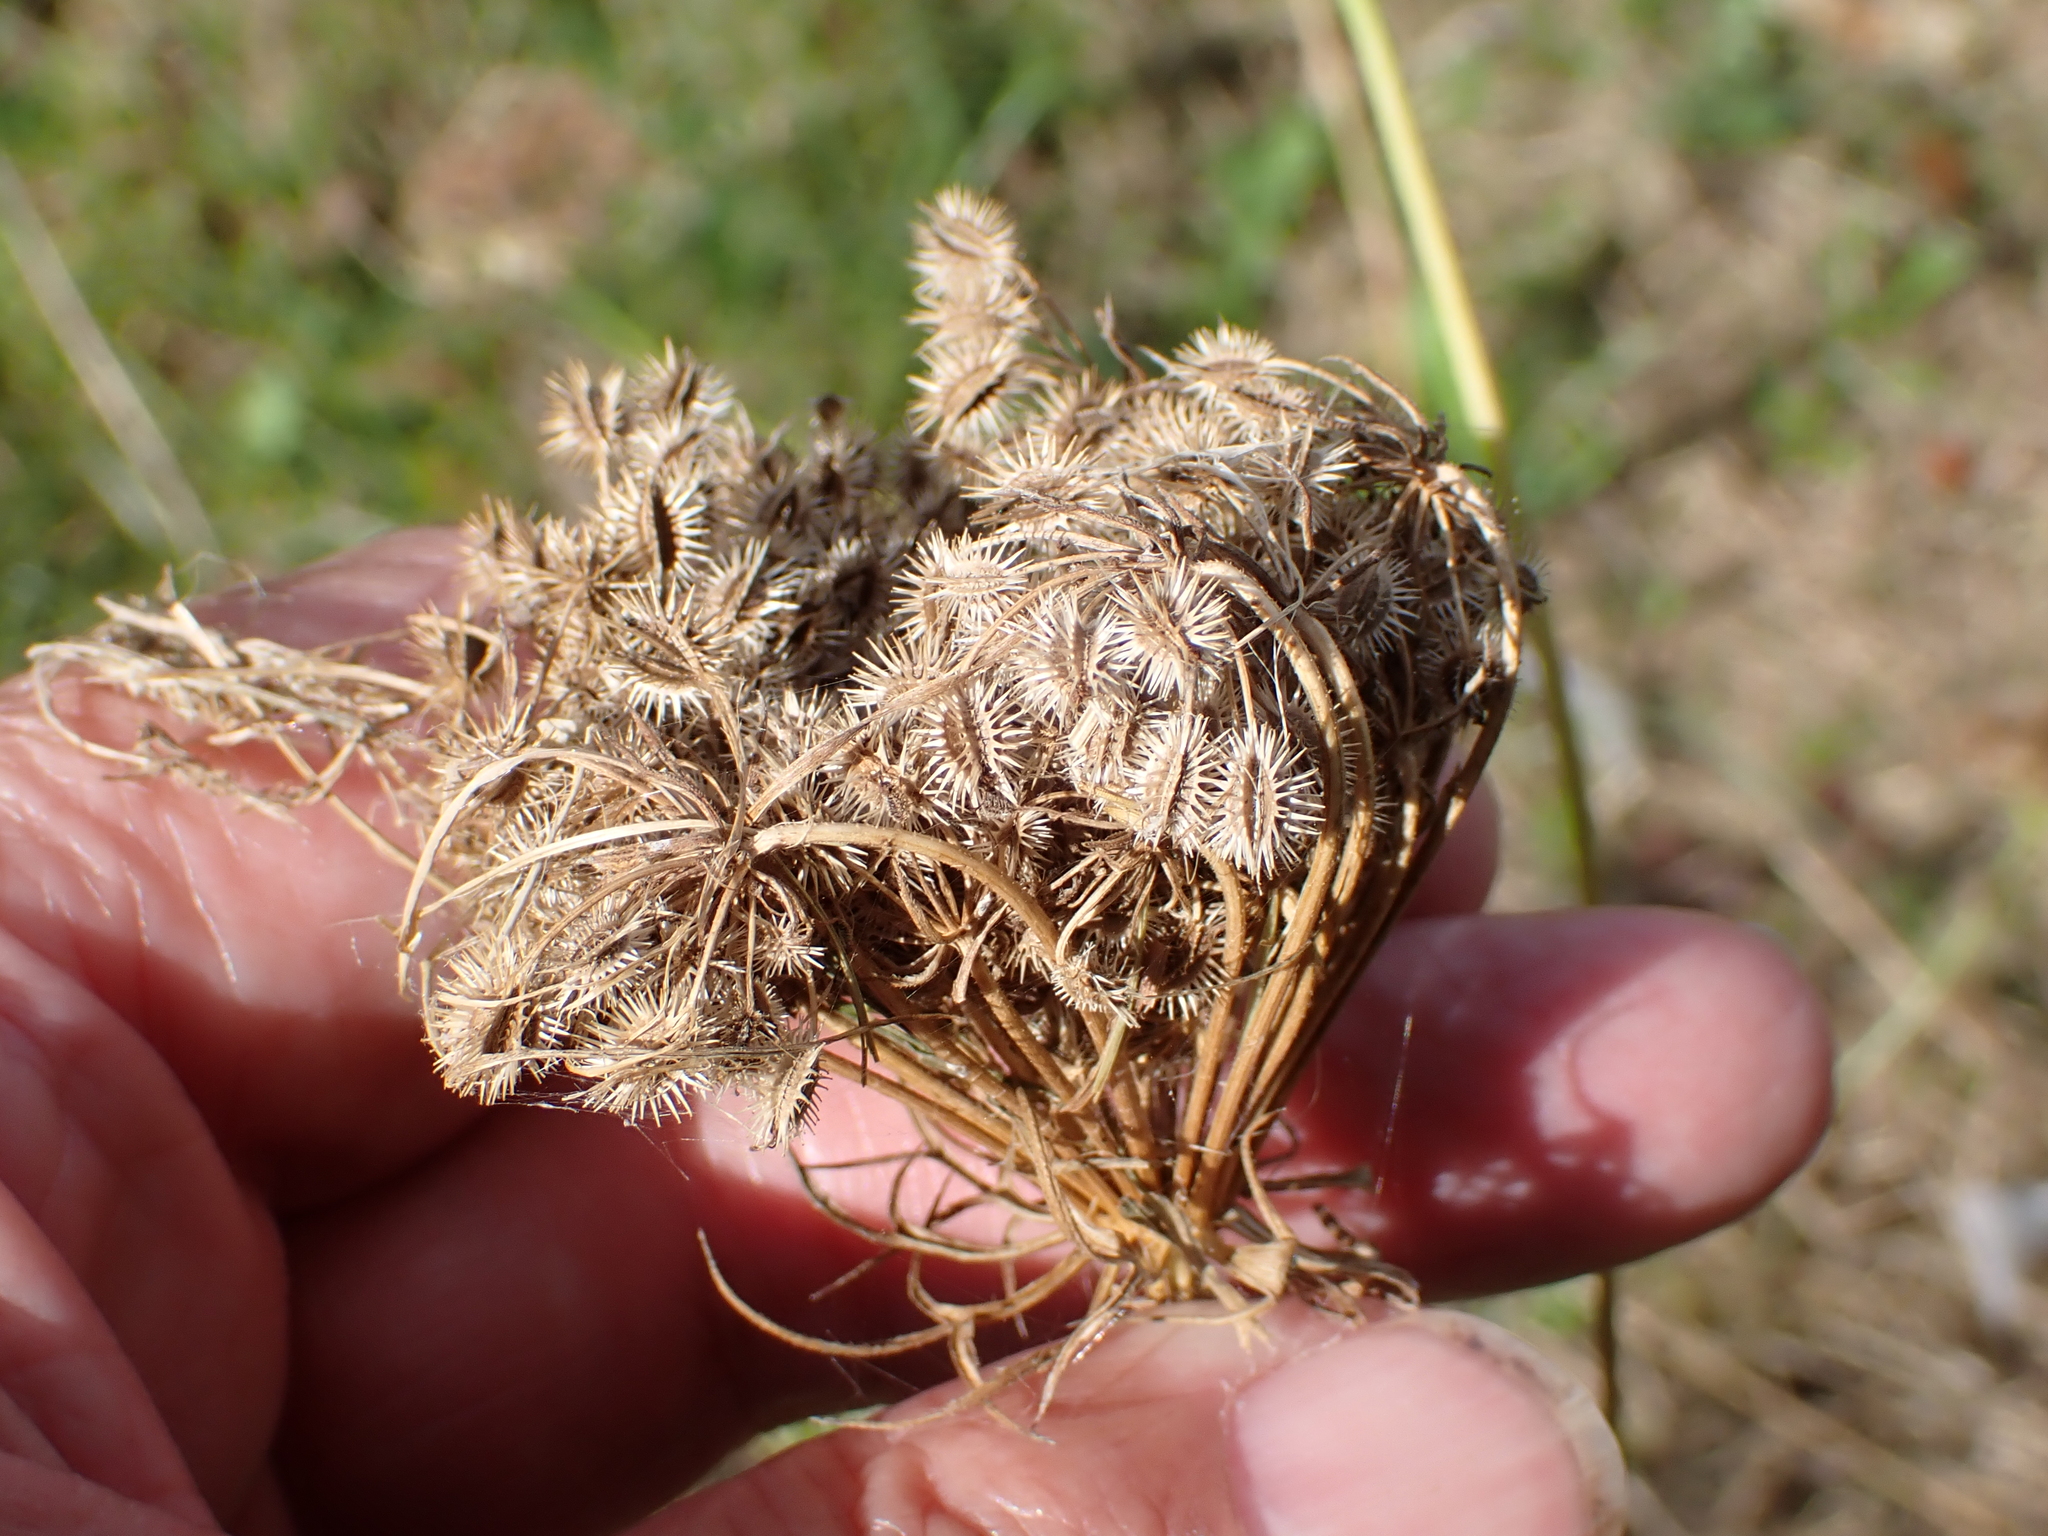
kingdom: Plantae
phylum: Tracheophyta
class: Magnoliopsida
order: Apiales
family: Apiaceae
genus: Daucus
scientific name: Daucus carota
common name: Wild carrot
